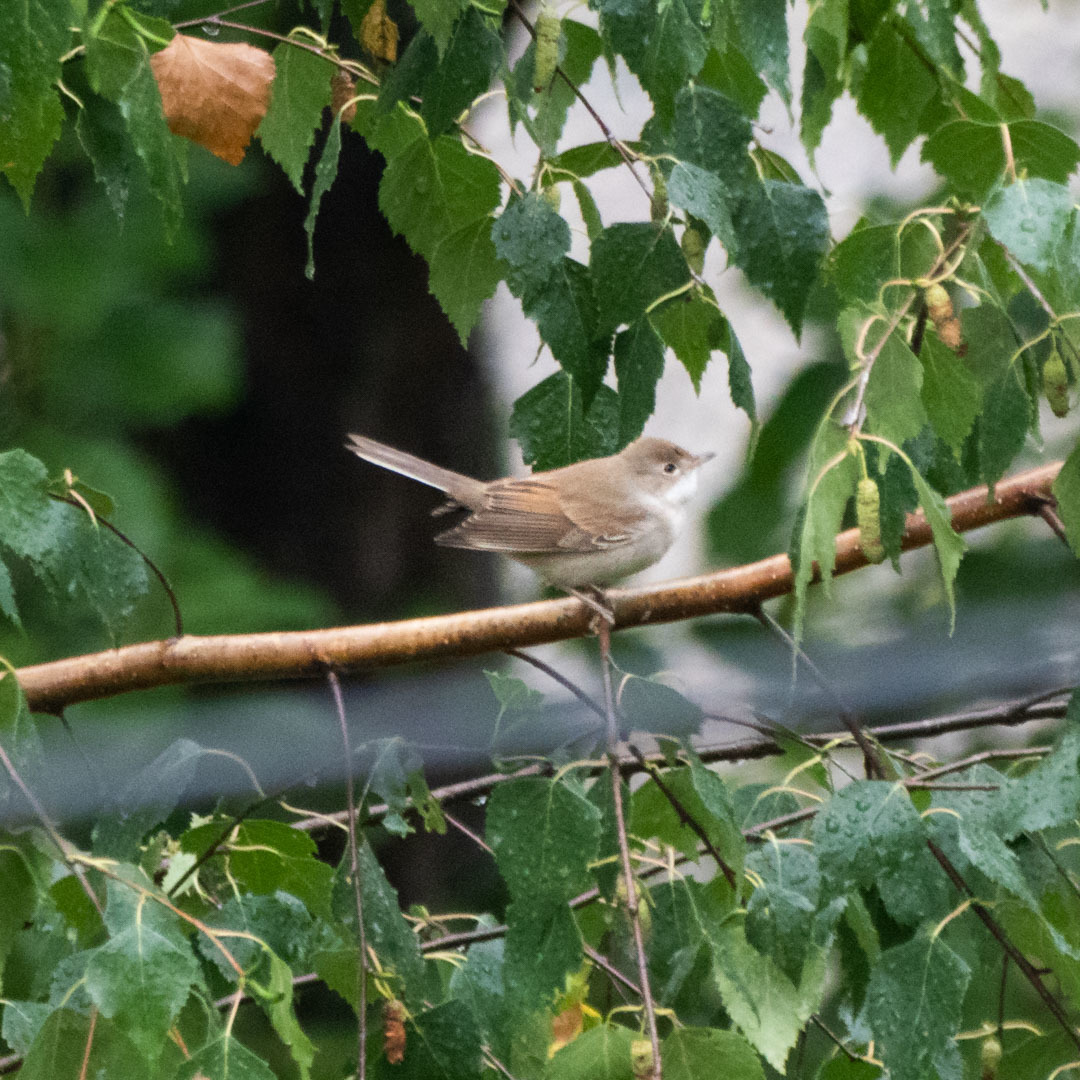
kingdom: Animalia
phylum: Chordata
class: Aves
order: Passeriformes
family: Sylviidae
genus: Sylvia
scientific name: Sylvia communis
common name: Common whitethroat
